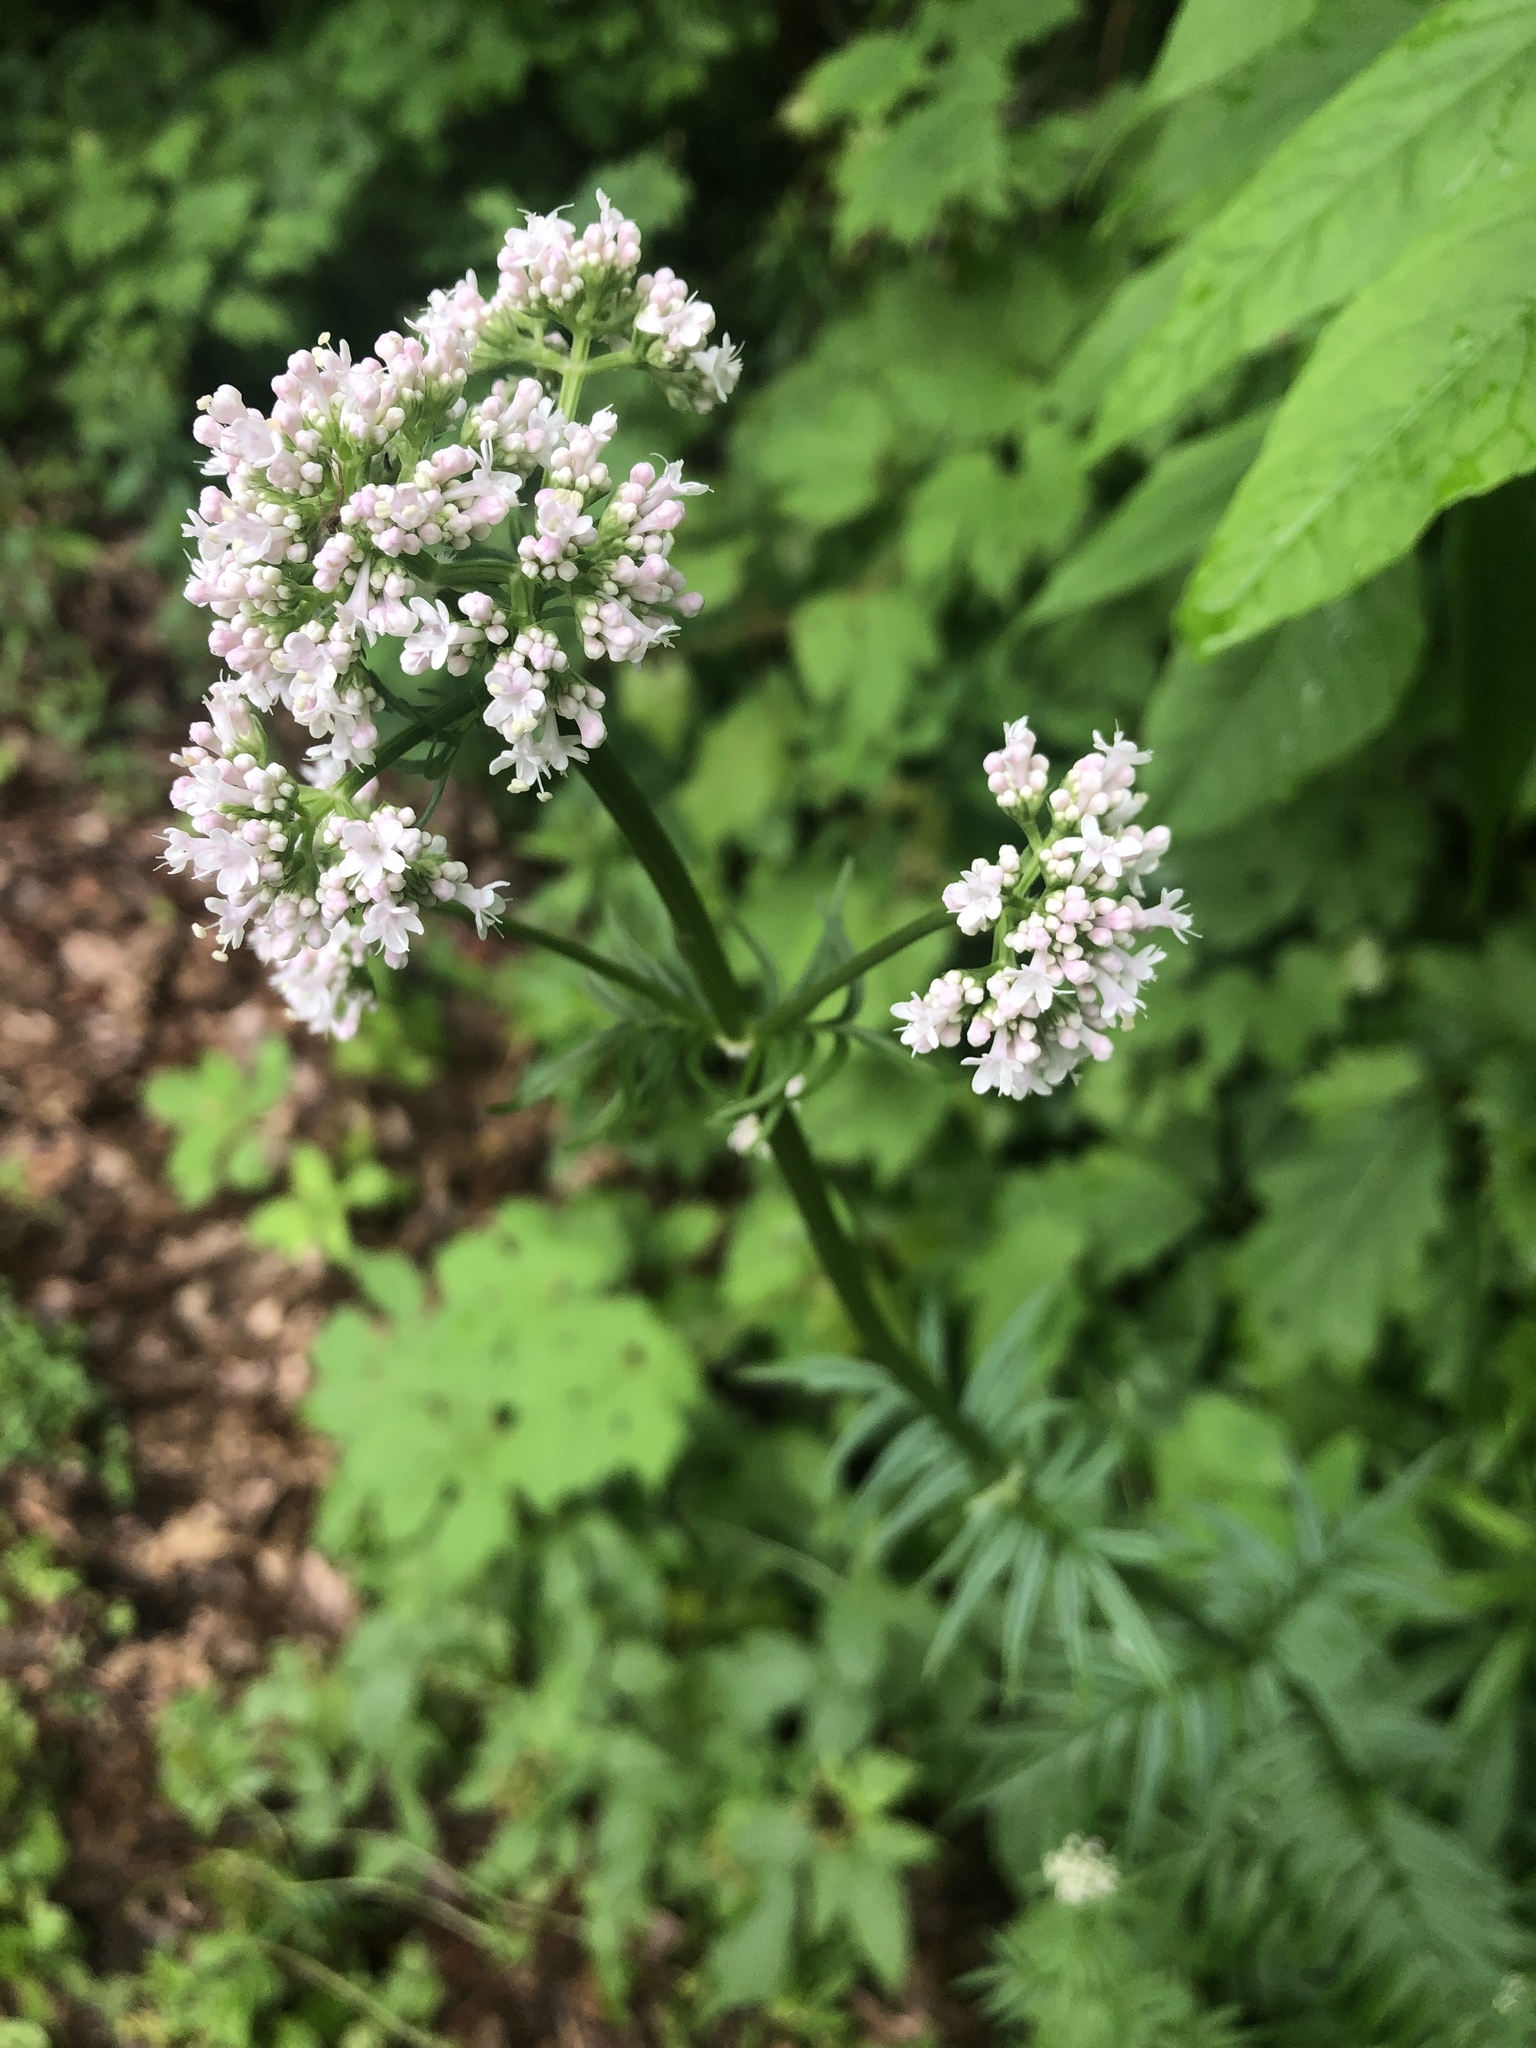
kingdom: Plantae
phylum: Tracheophyta
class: Magnoliopsida
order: Dipsacales
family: Caprifoliaceae
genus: Valeriana
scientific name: Valeriana officinalis
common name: Common valerian
